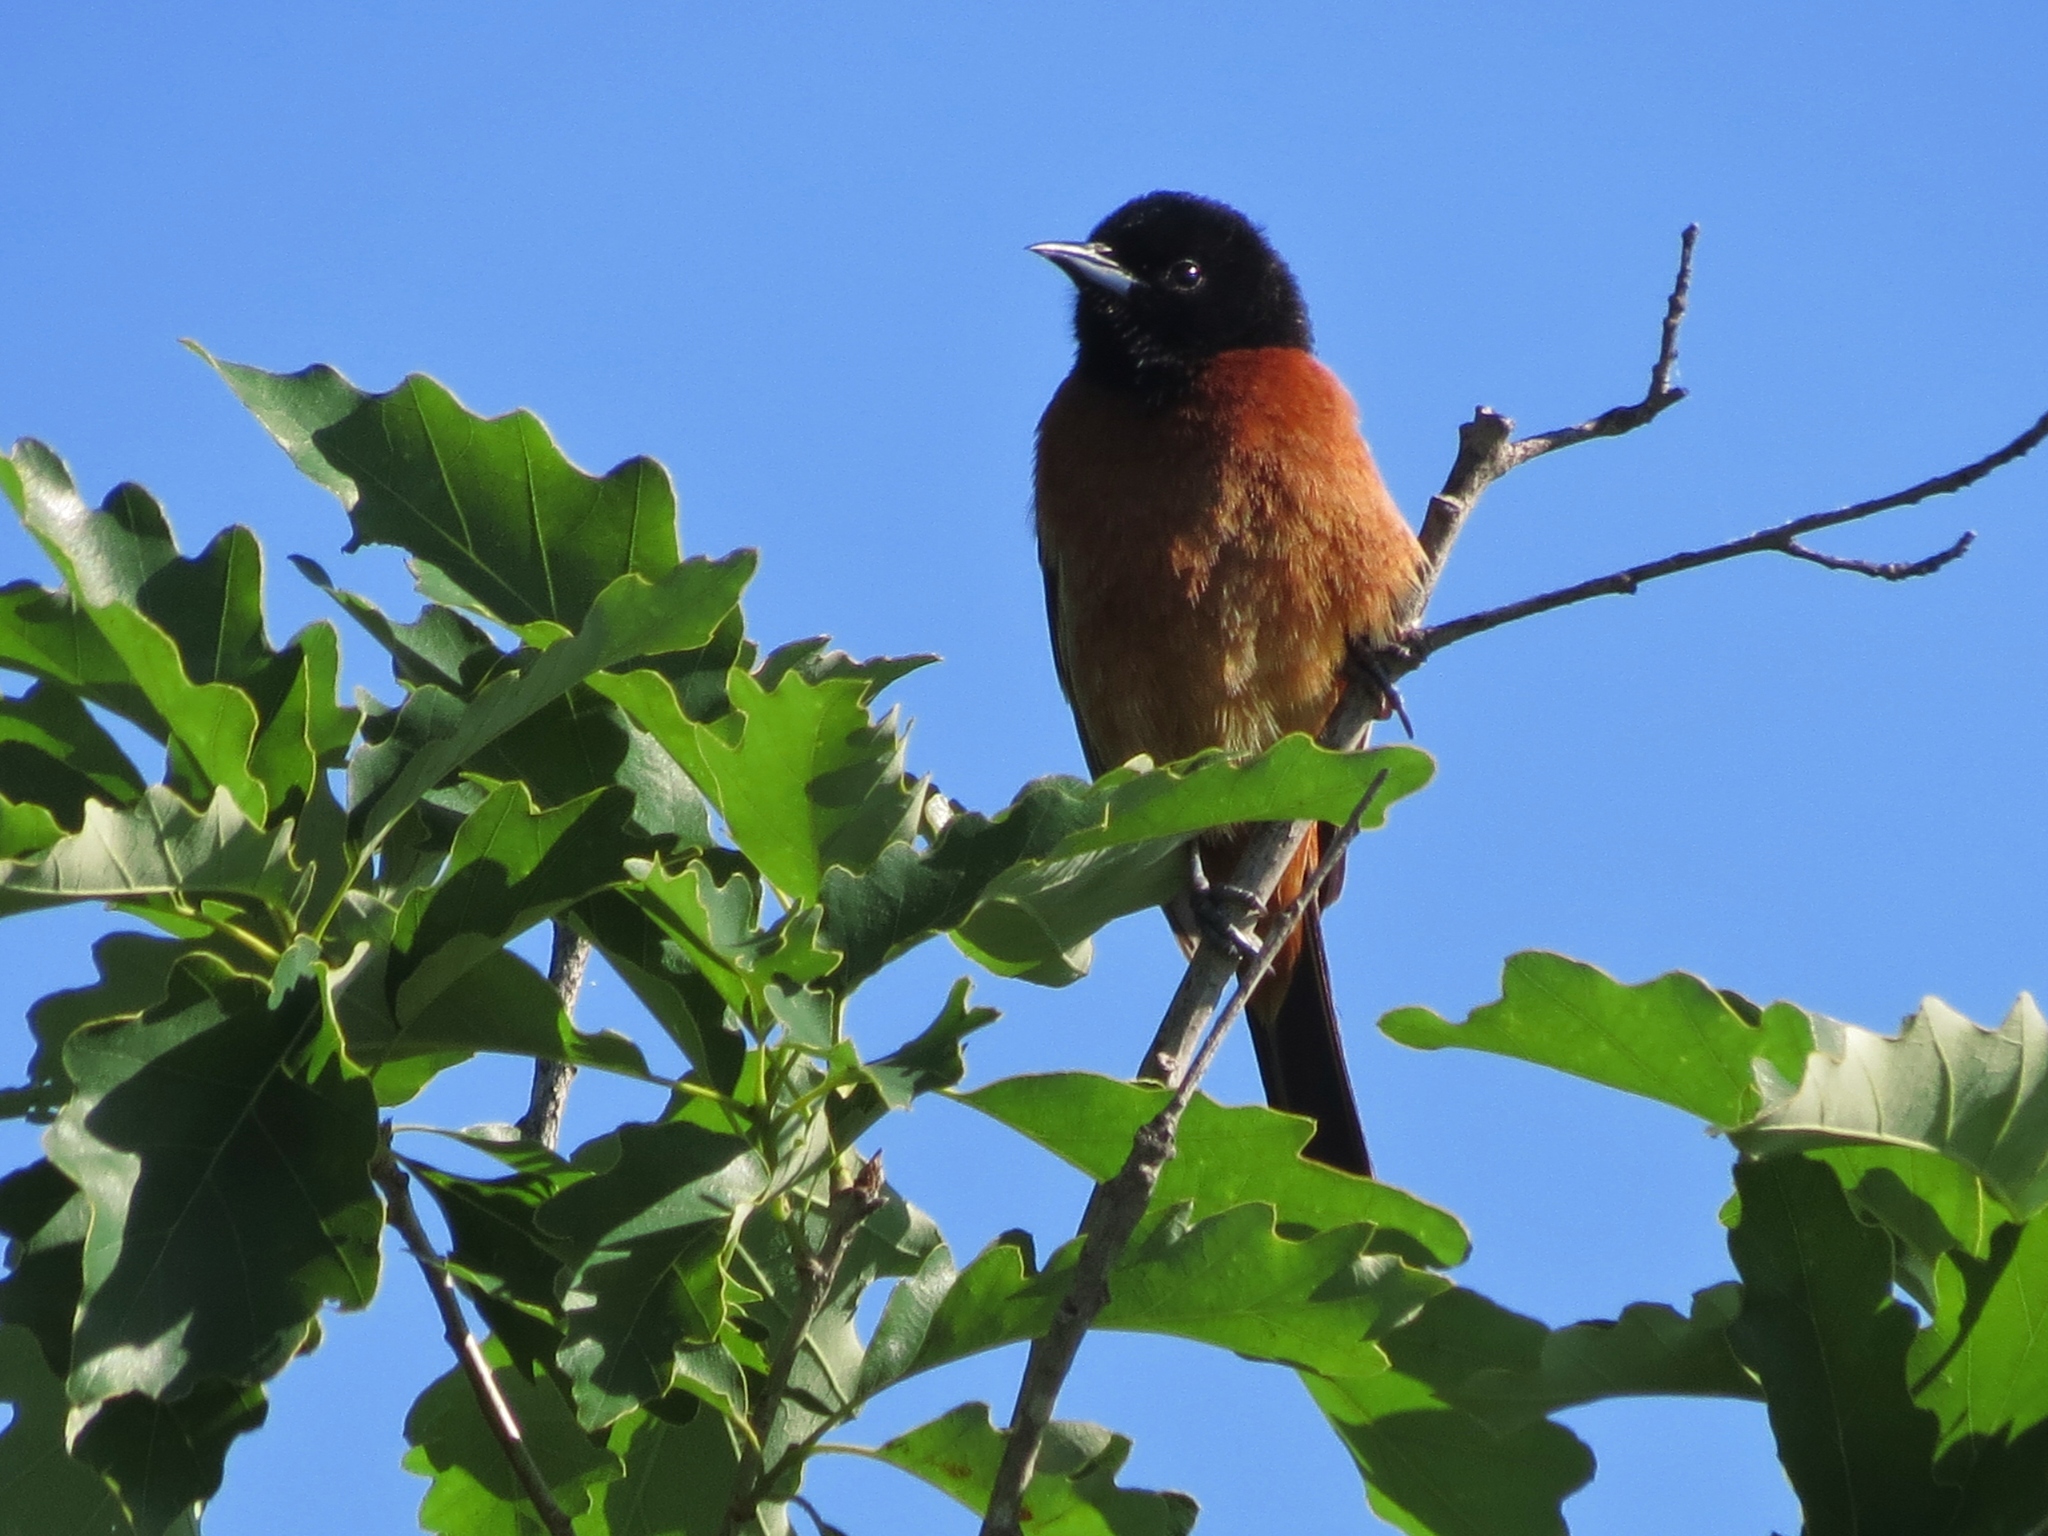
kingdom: Animalia
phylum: Chordata
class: Aves
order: Passeriformes
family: Icteridae
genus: Icterus
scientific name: Icterus spurius
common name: Orchard oriole
